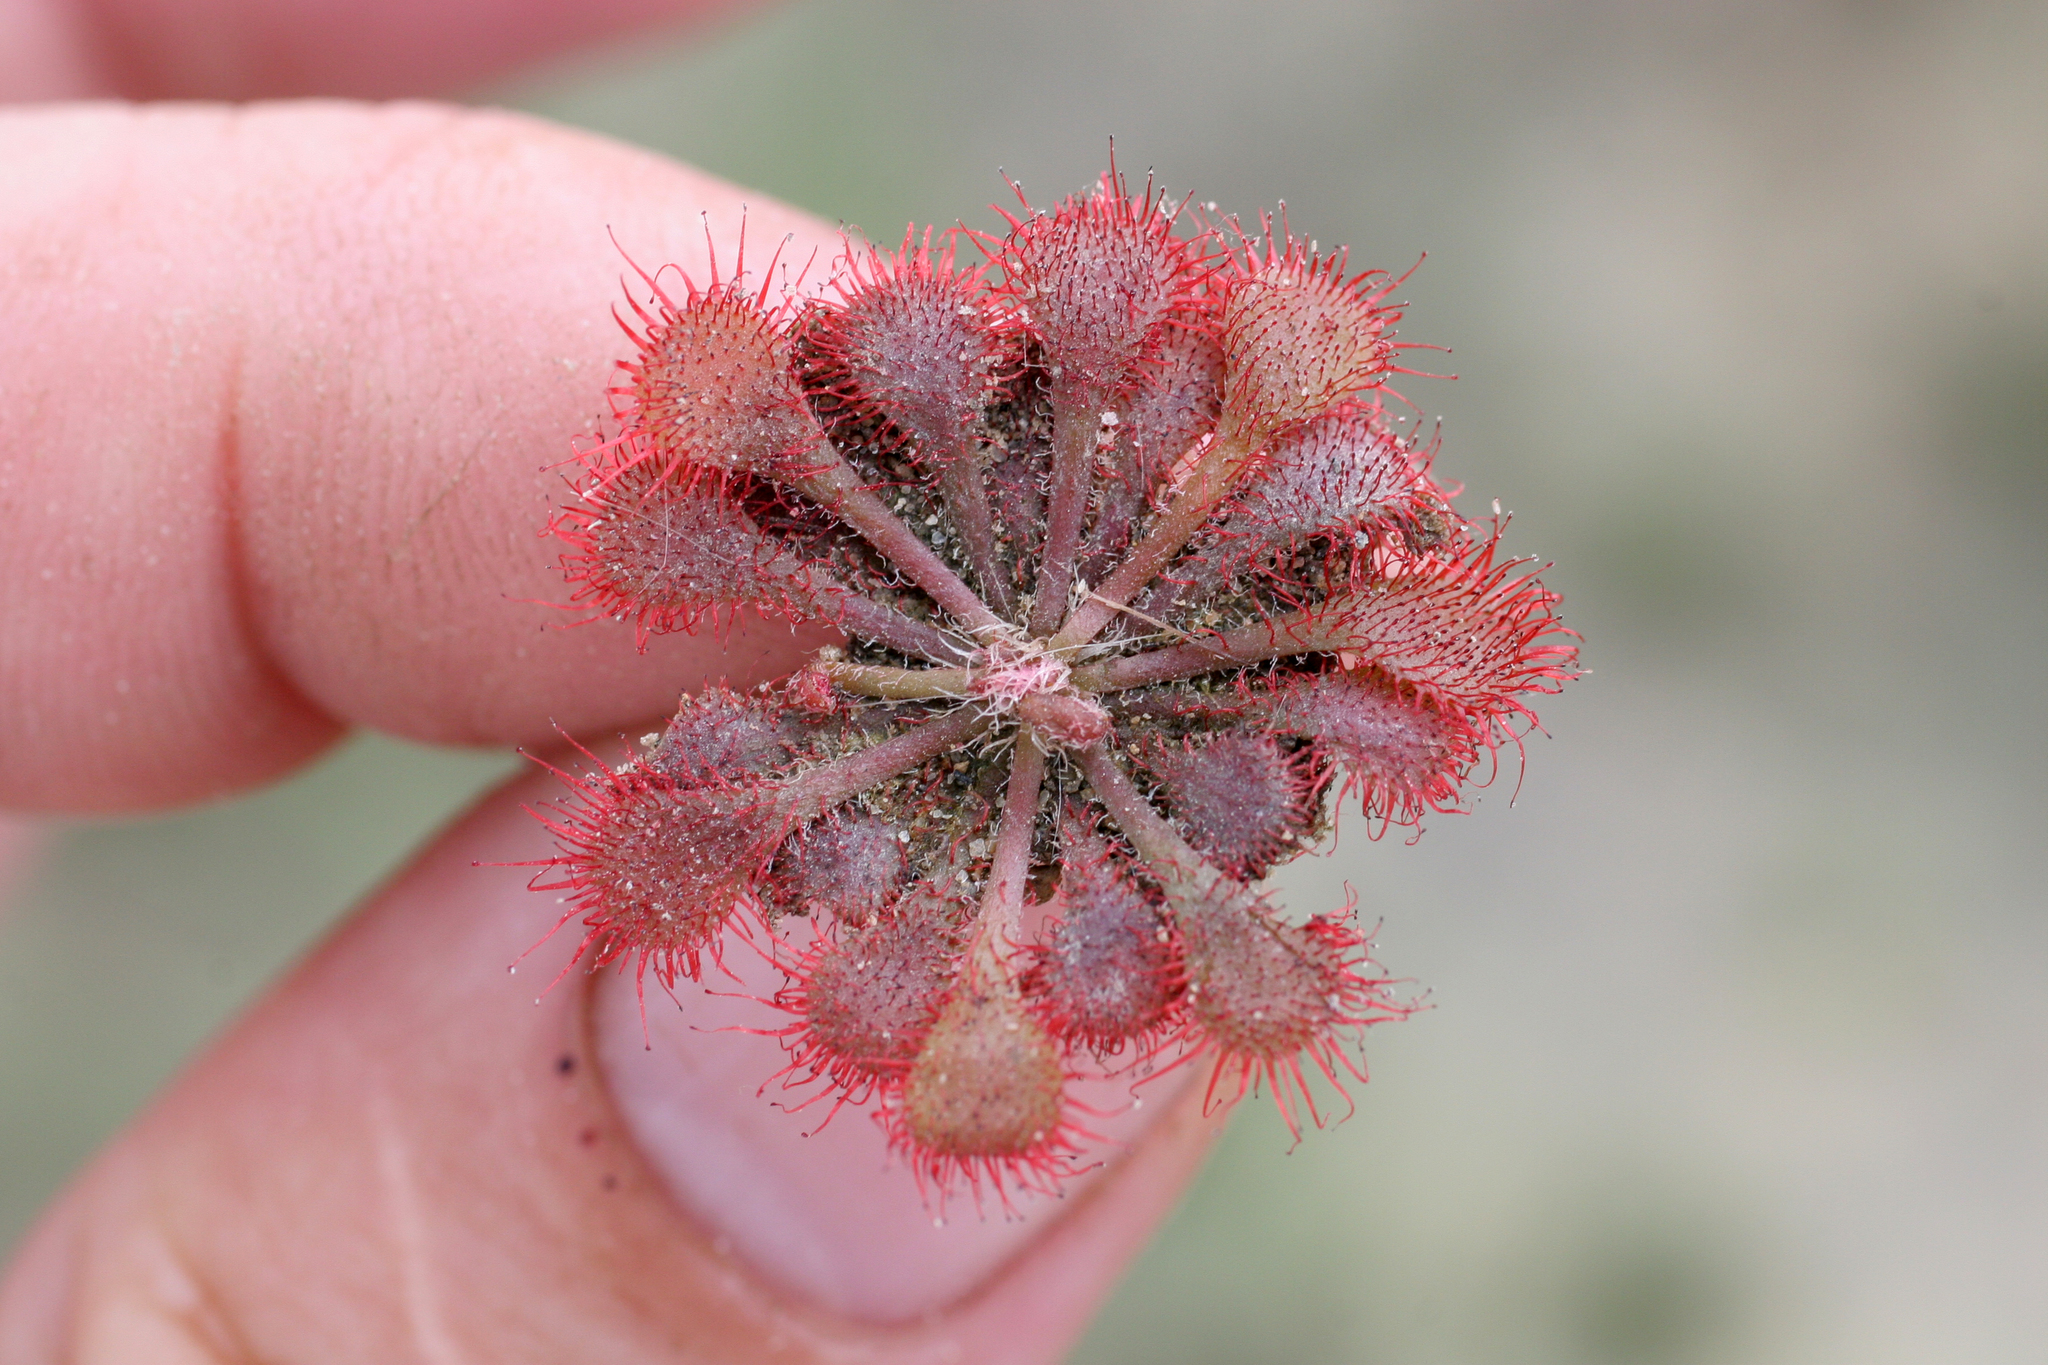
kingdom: Plantae
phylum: Tracheophyta
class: Magnoliopsida
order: Caryophyllales
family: Droseraceae
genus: Drosera
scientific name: Drosera cayennensis
